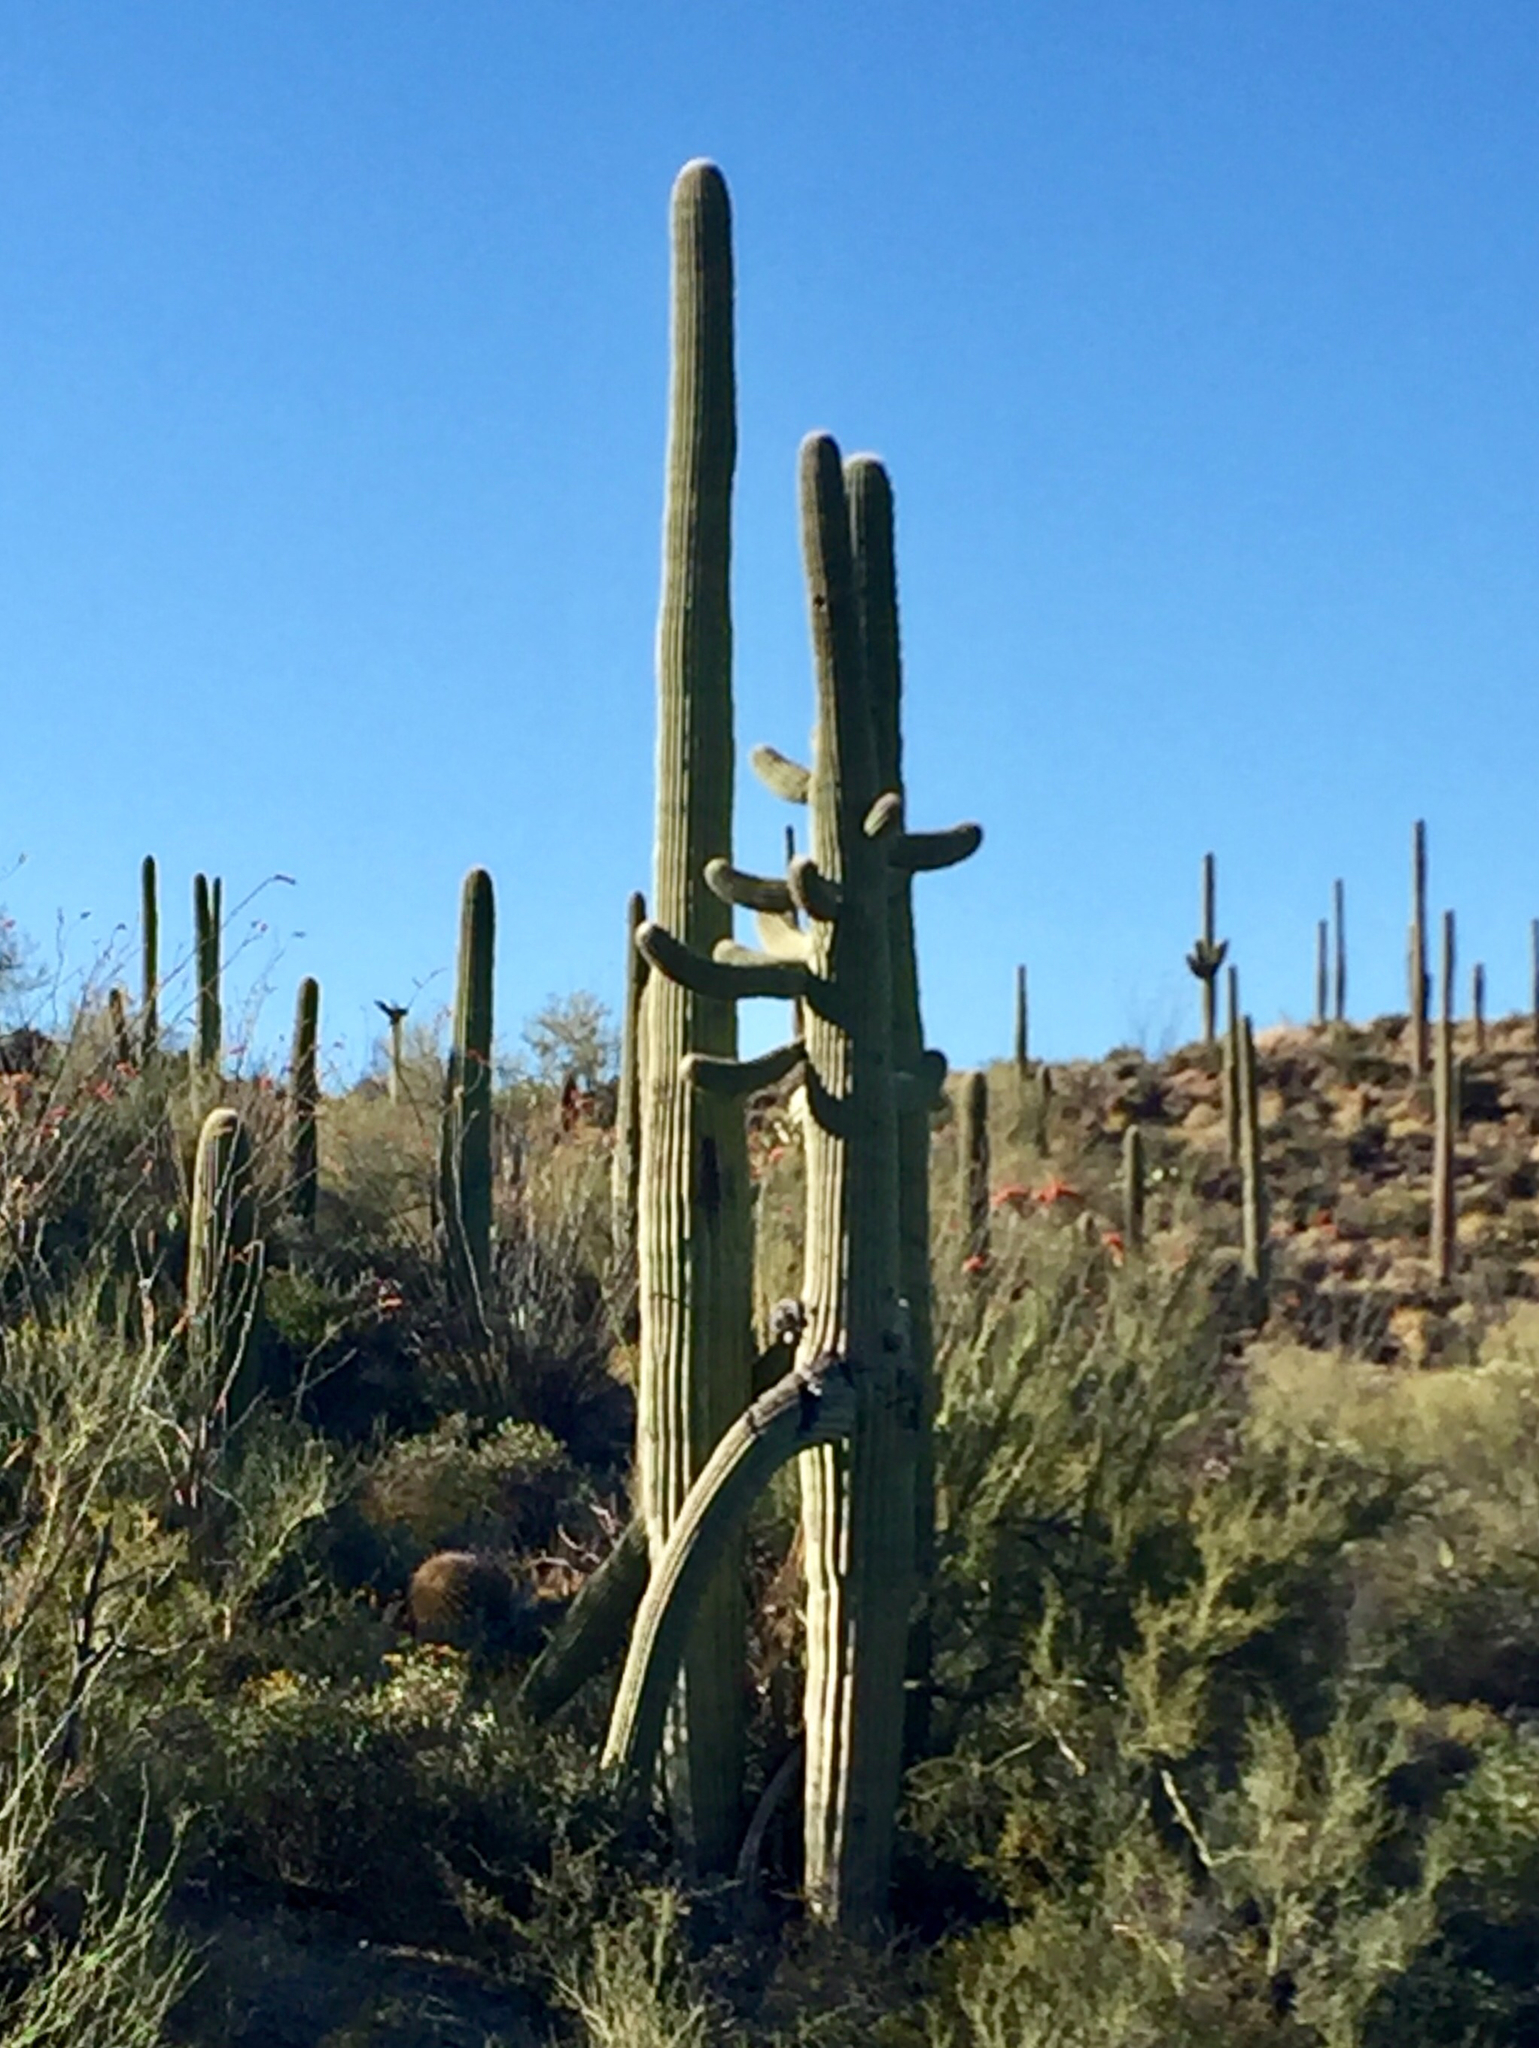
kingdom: Plantae
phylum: Tracheophyta
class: Magnoliopsida
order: Caryophyllales
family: Cactaceae
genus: Carnegiea
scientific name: Carnegiea gigantea
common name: Saguaro
